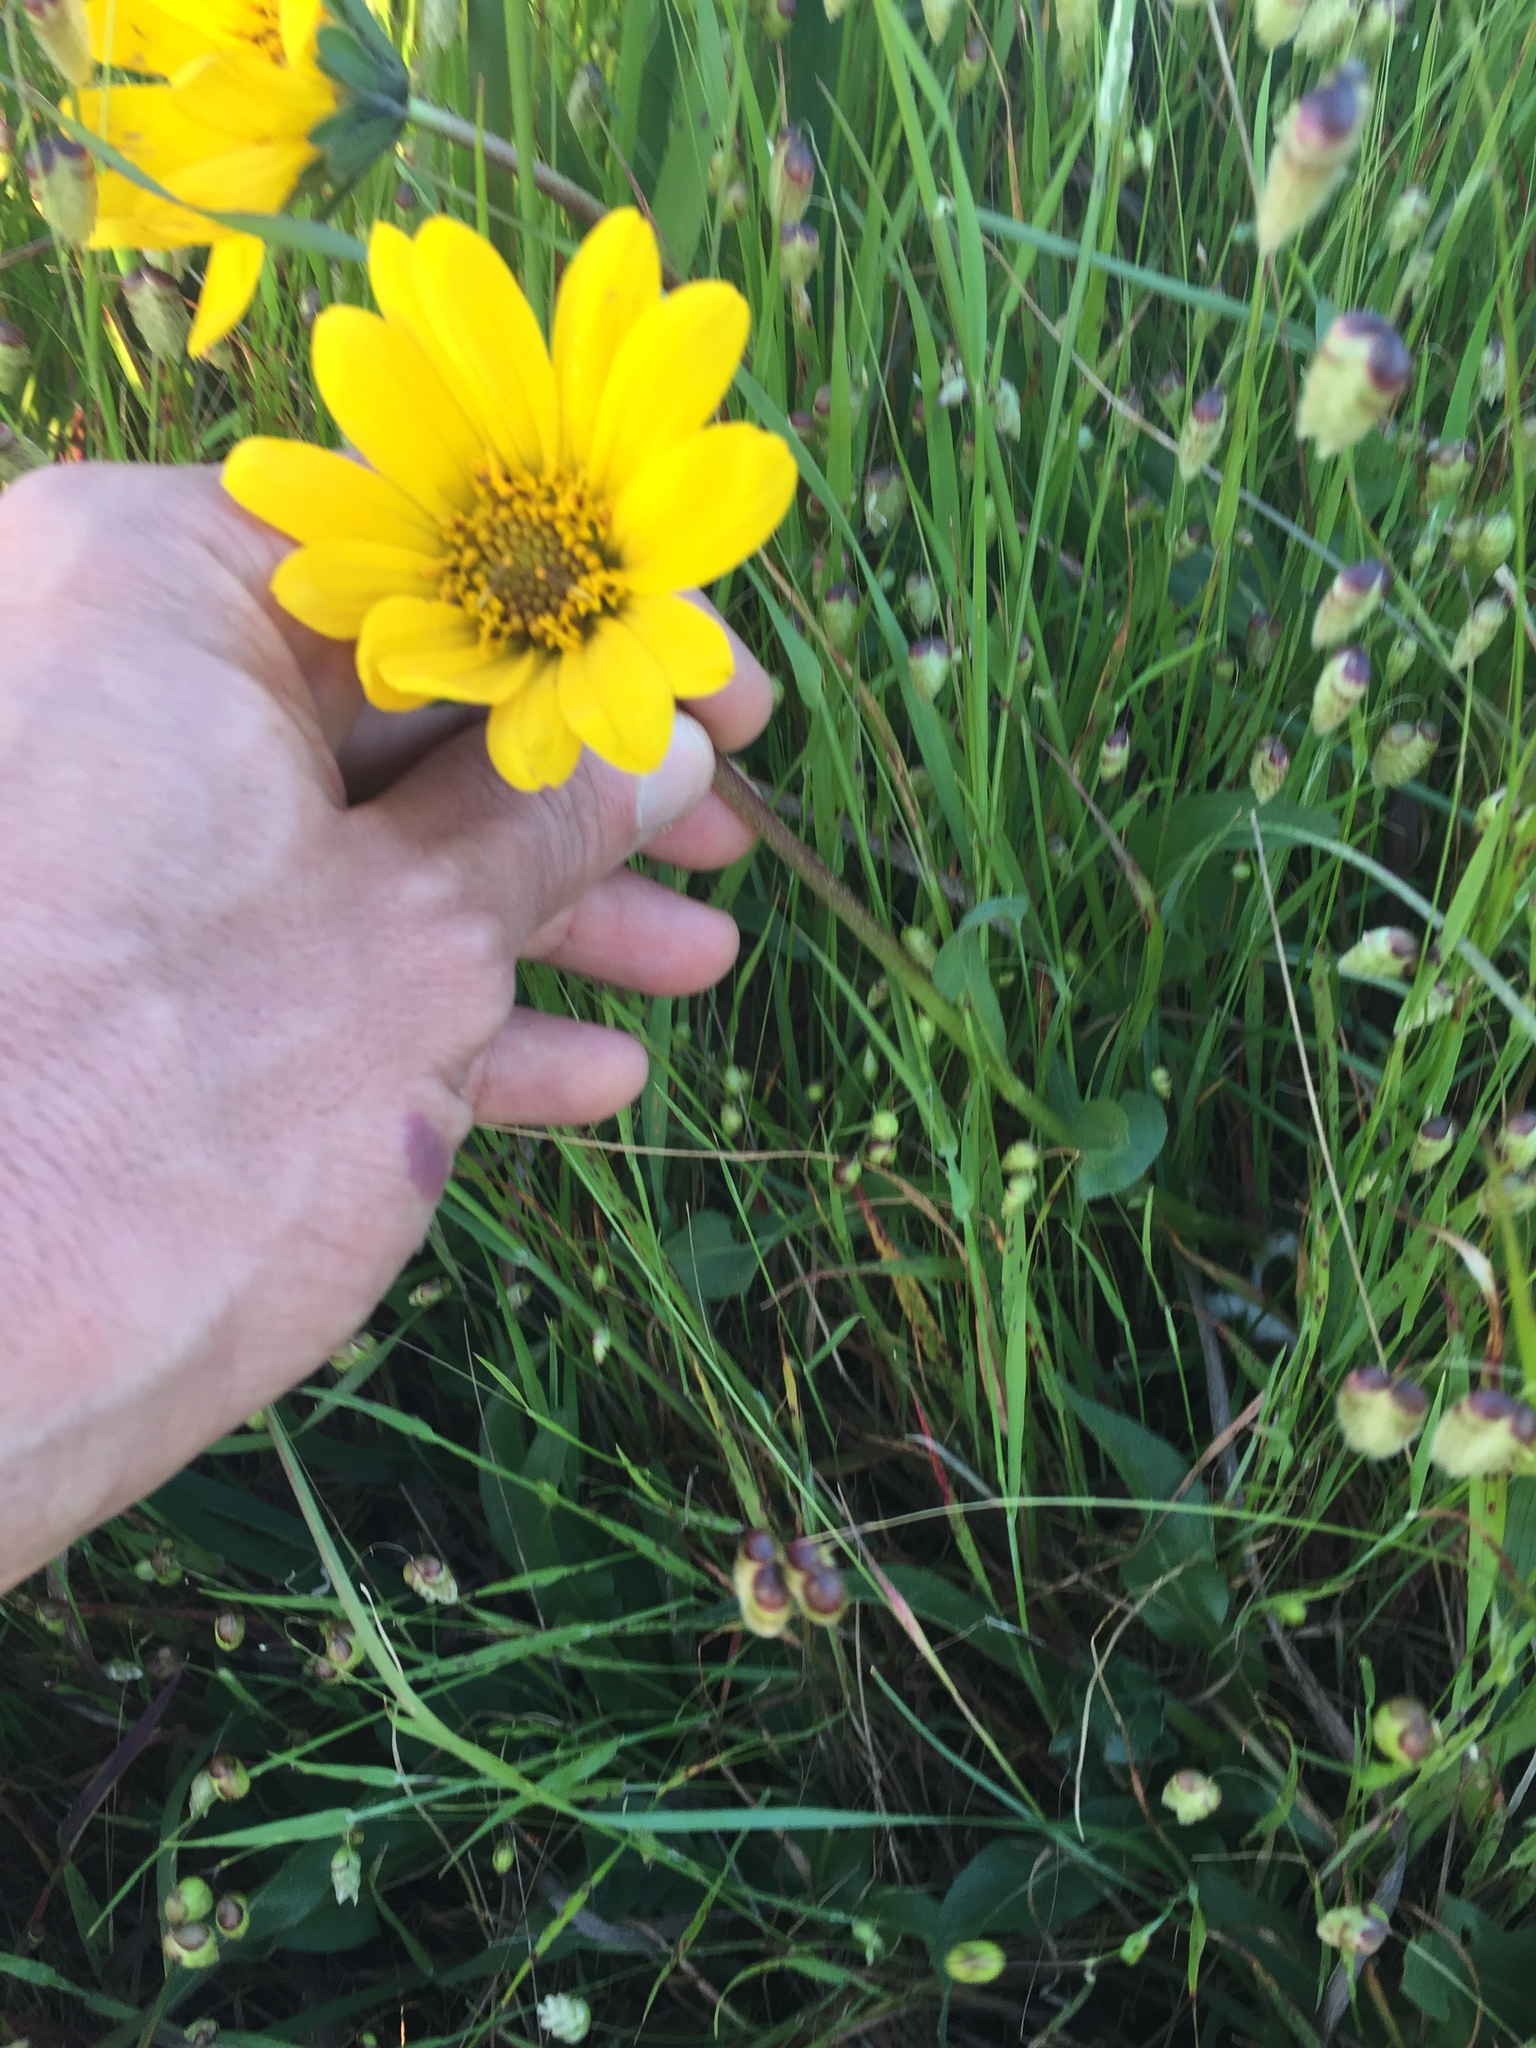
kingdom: Plantae
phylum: Tracheophyta
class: Magnoliopsida
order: Asterales
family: Asteraceae
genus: Wyethia
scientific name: Wyethia angustifolia
